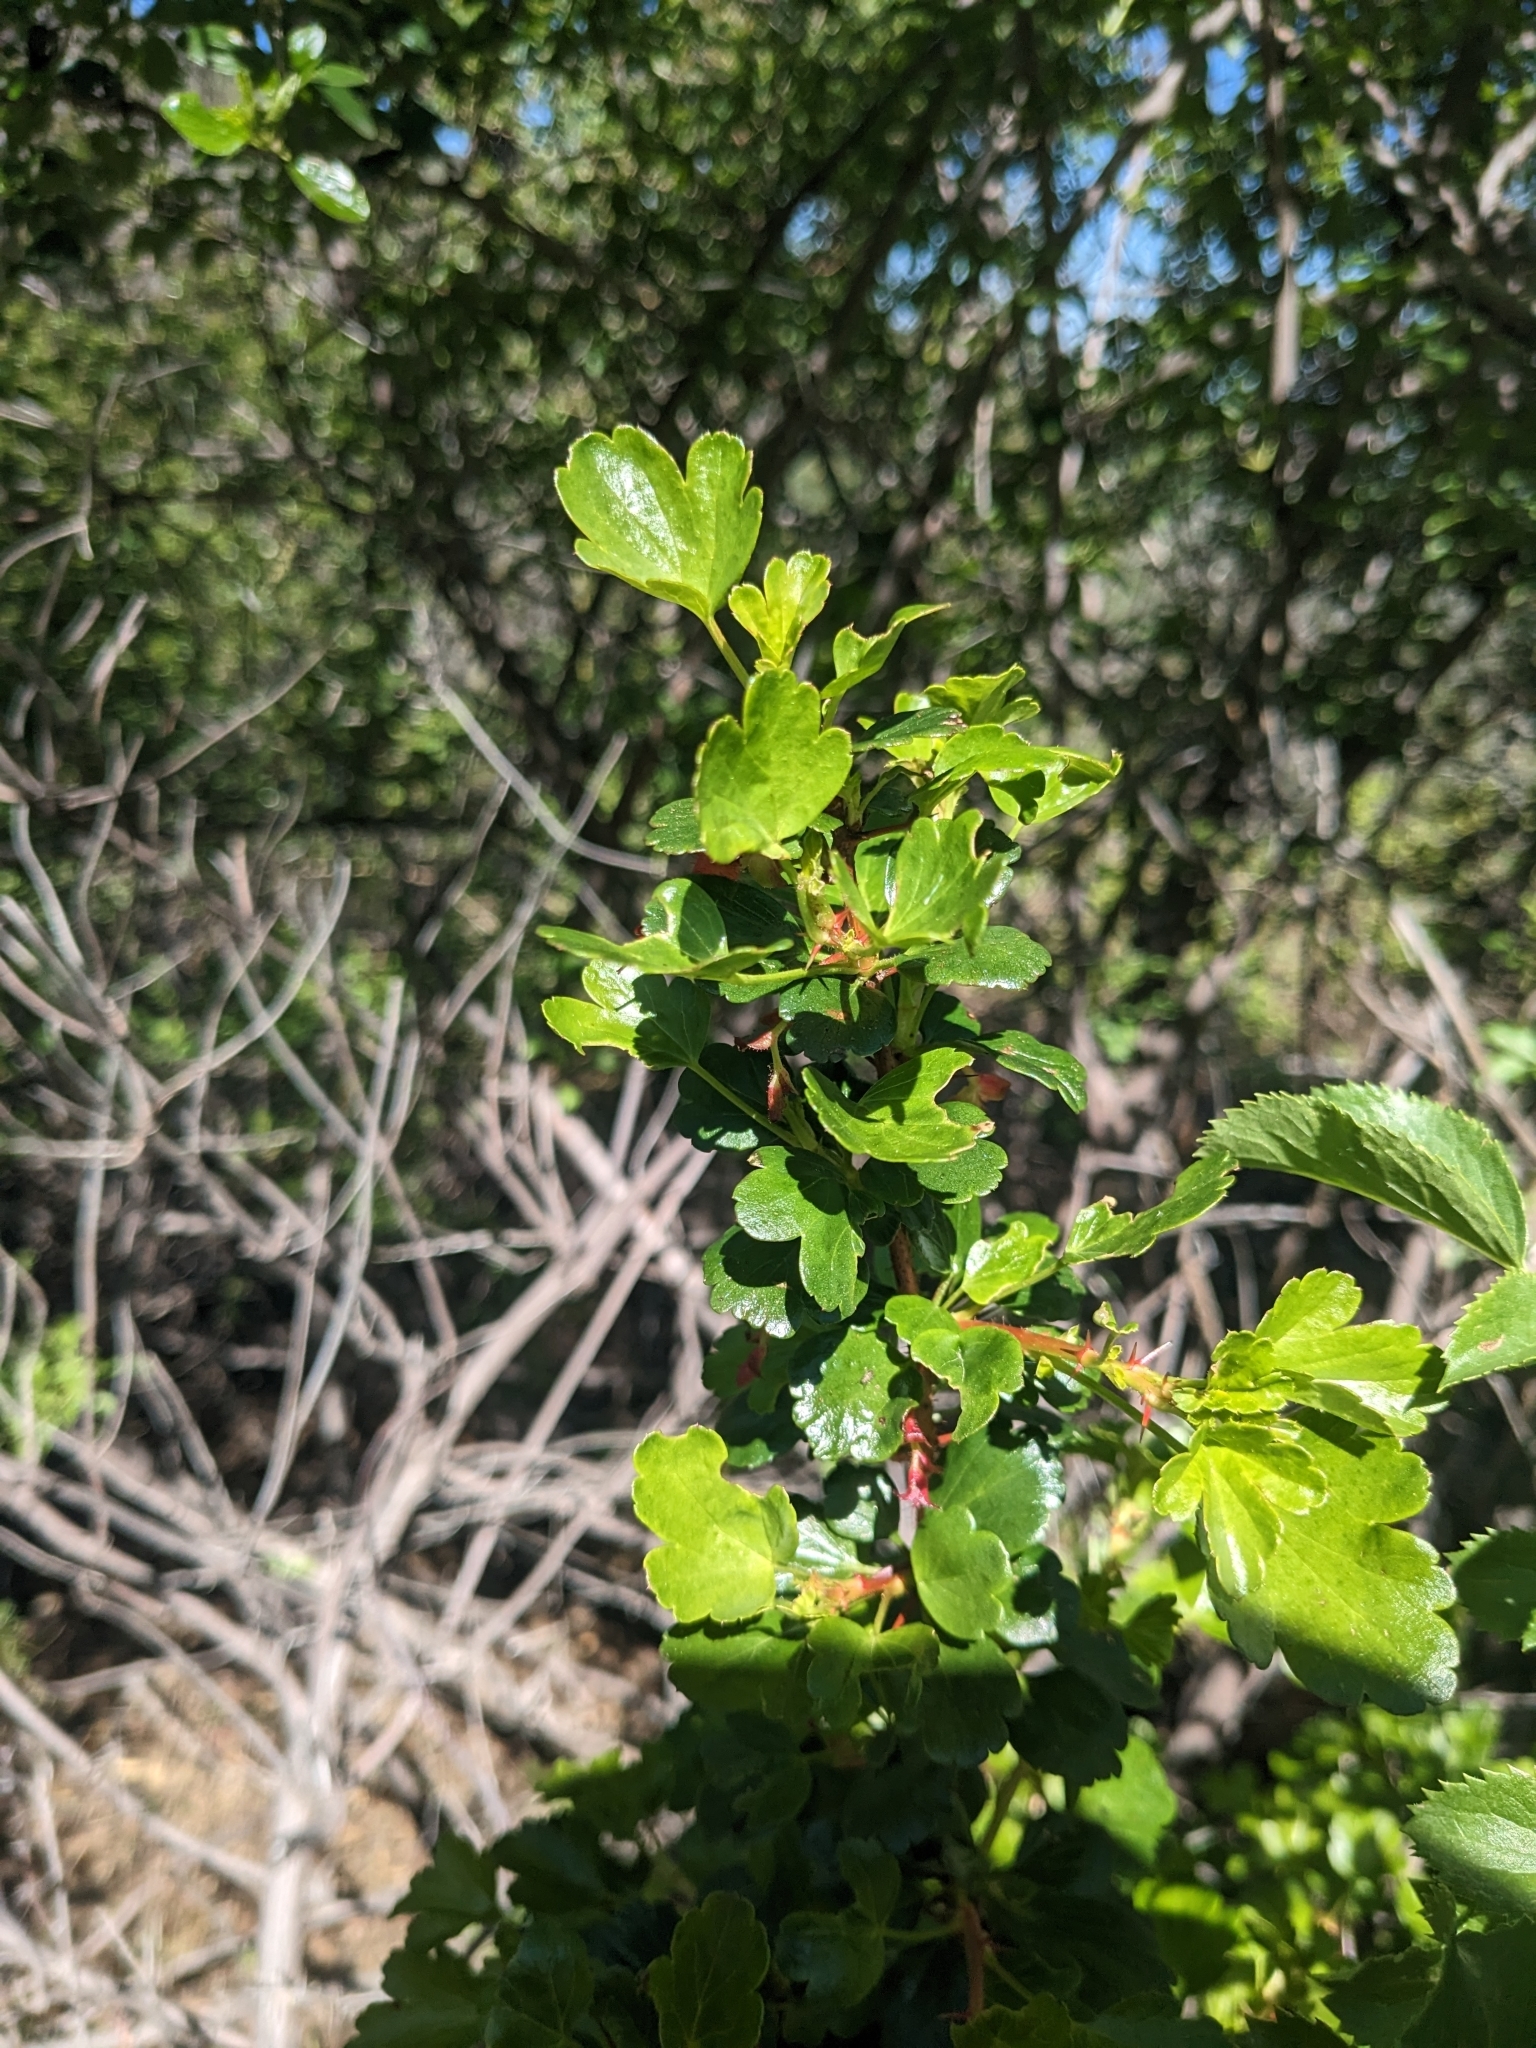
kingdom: Plantae
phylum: Tracheophyta
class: Magnoliopsida
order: Saxifragales
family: Grossulariaceae
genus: Ribes
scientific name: Ribes speciosum
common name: Fuchsia-flower gooseberry
